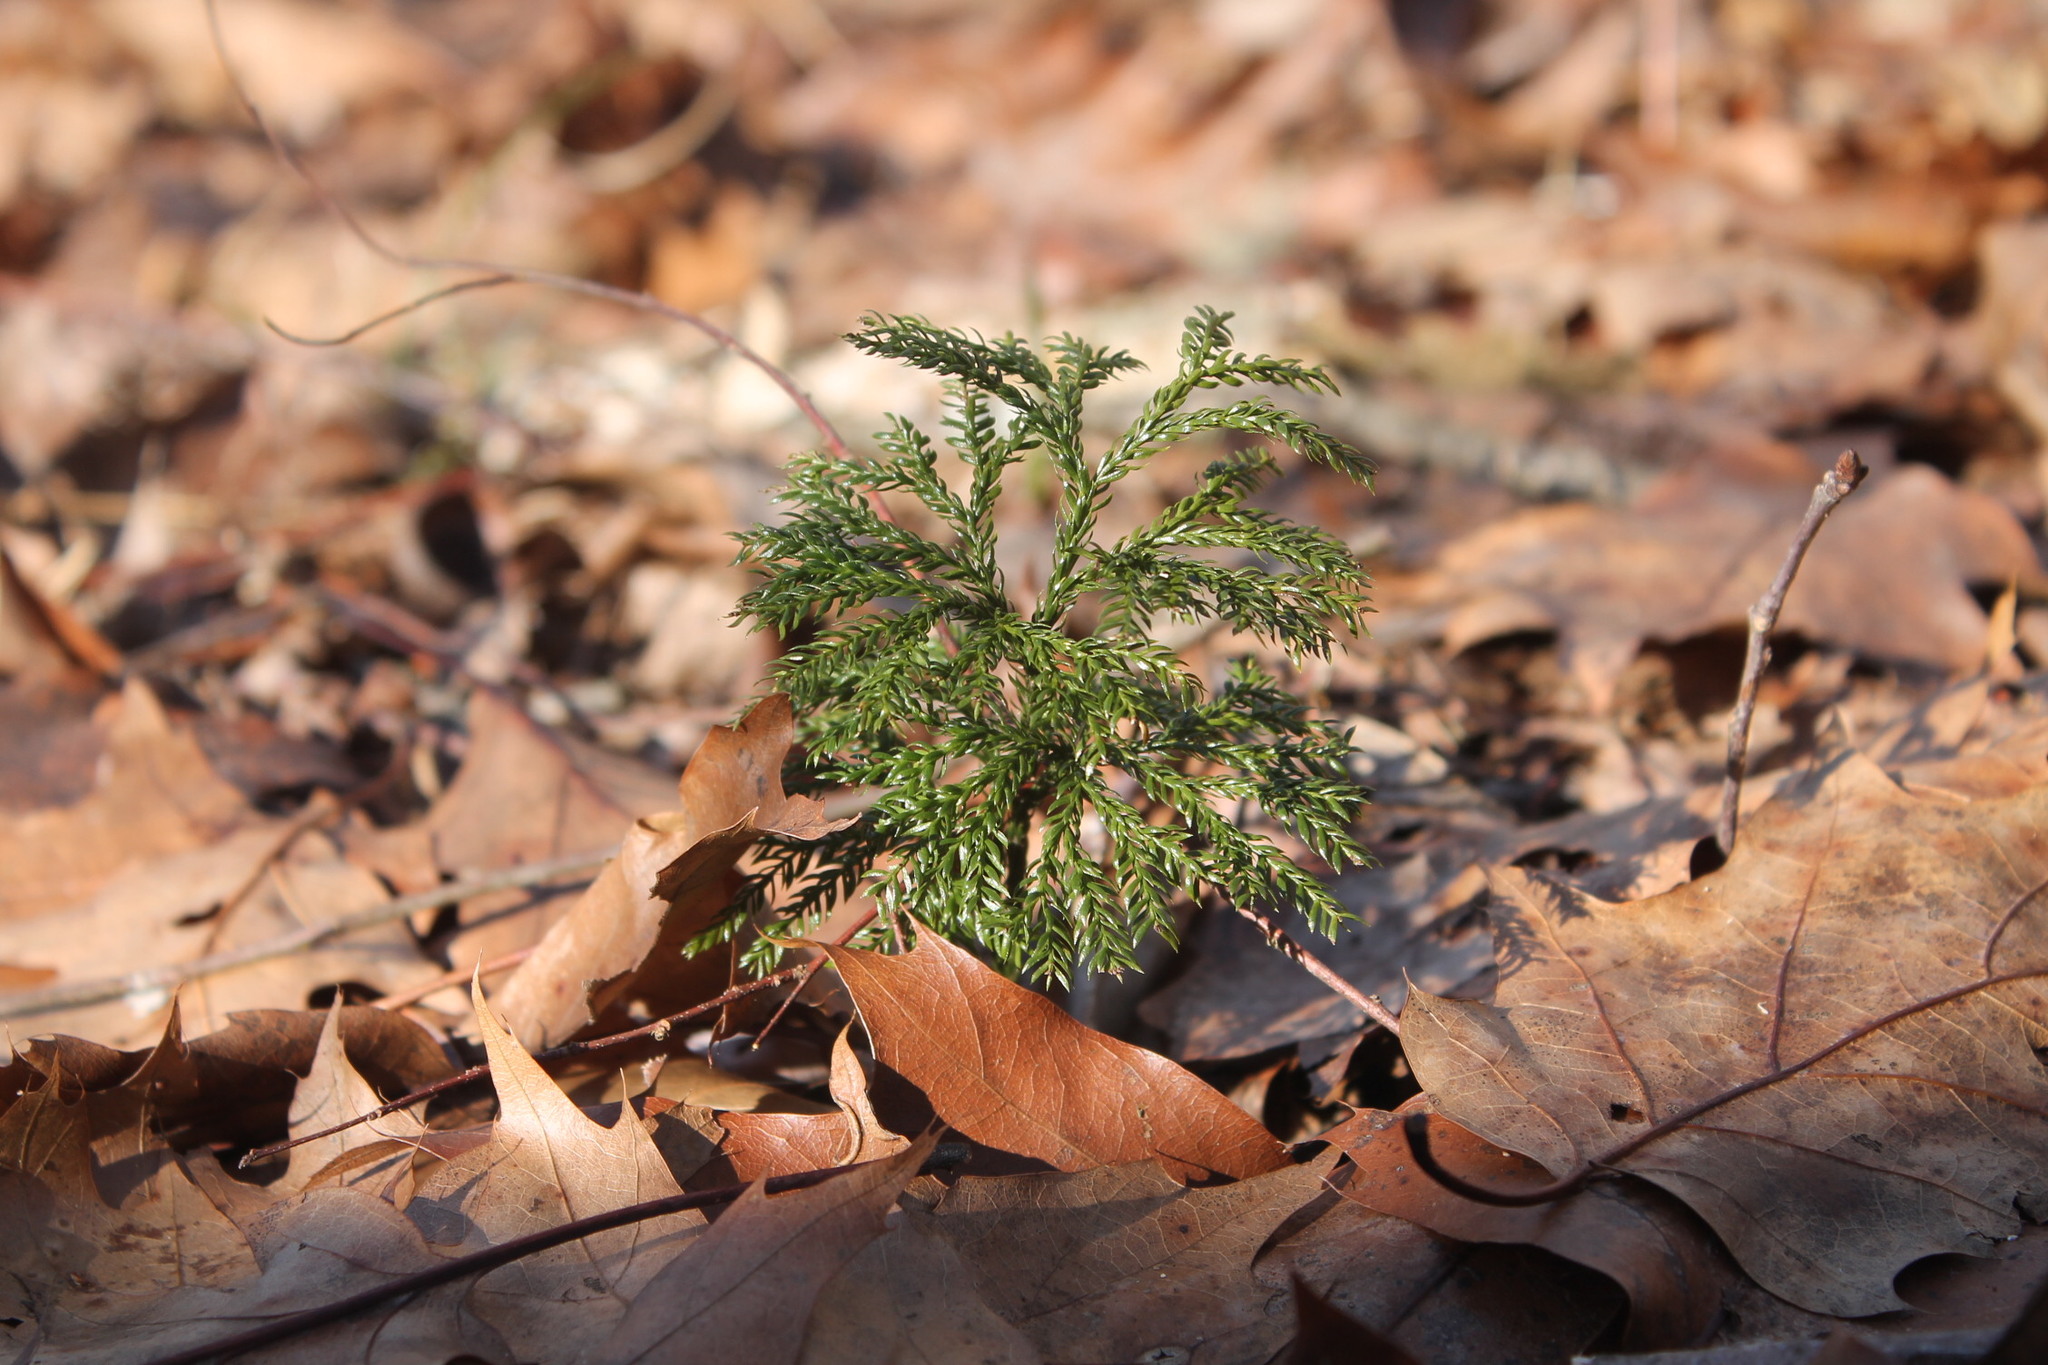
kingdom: Plantae
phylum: Tracheophyta
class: Lycopodiopsida
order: Lycopodiales
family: Lycopodiaceae
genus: Dendrolycopodium
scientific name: Dendrolycopodium obscurum
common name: Common ground-pine
